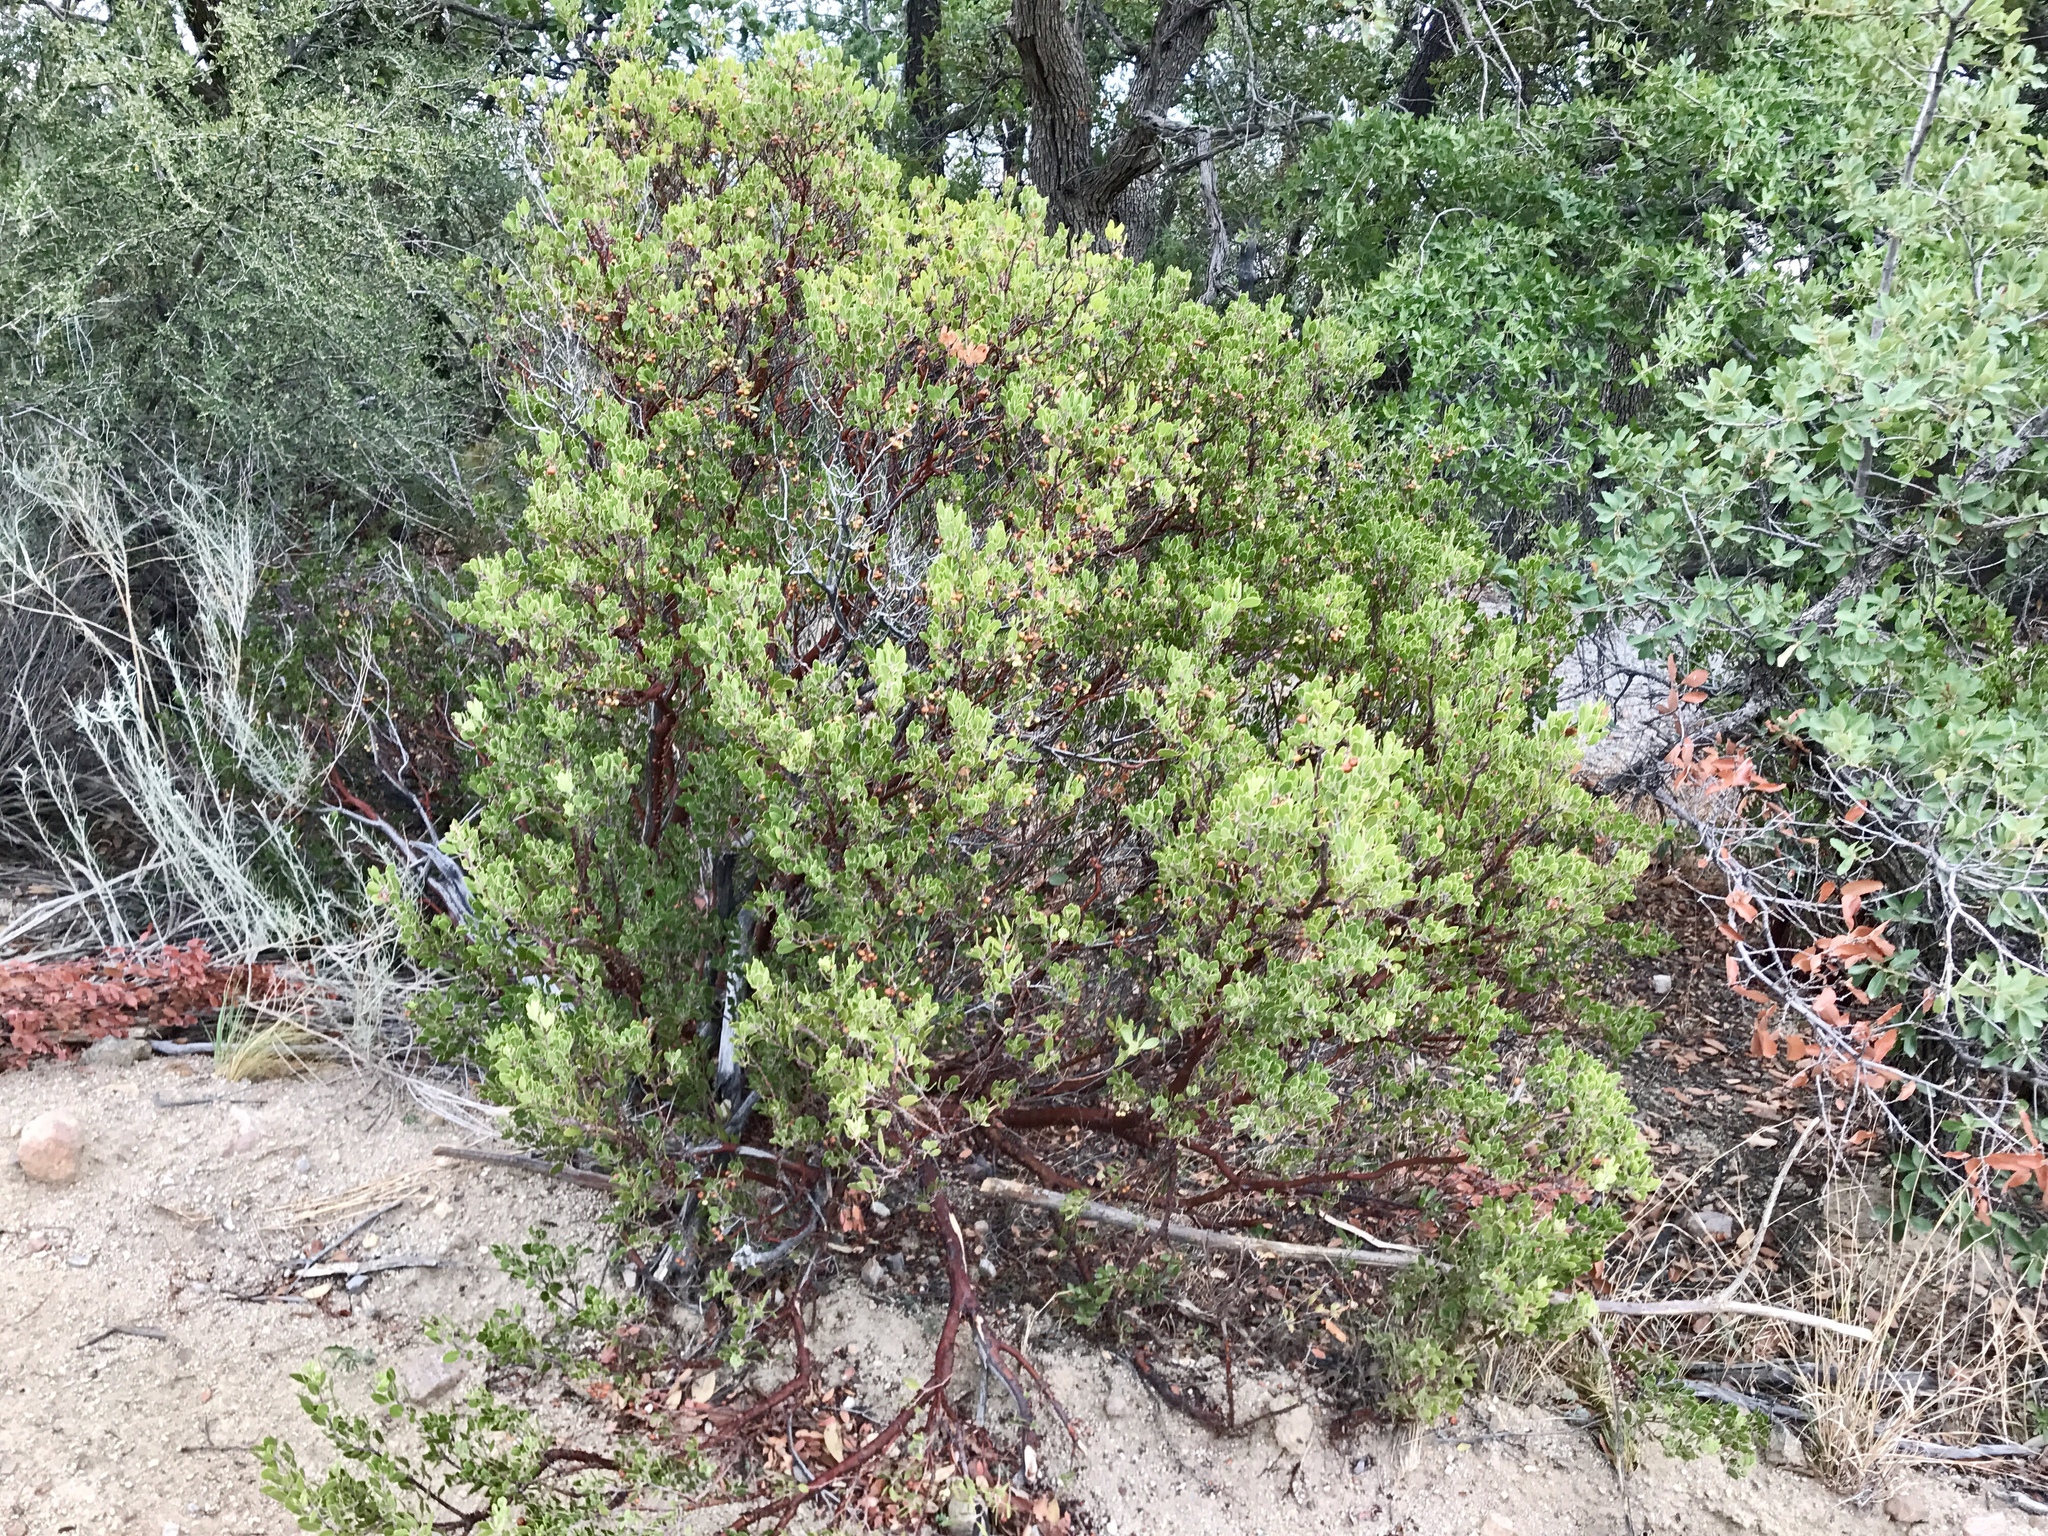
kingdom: Plantae
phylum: Tracheophyta
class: Magnoliopsida
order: Ericales
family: Ericaceae
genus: Arctostaphylos
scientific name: Arctostaphylos pungens
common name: Mexican manzanita
